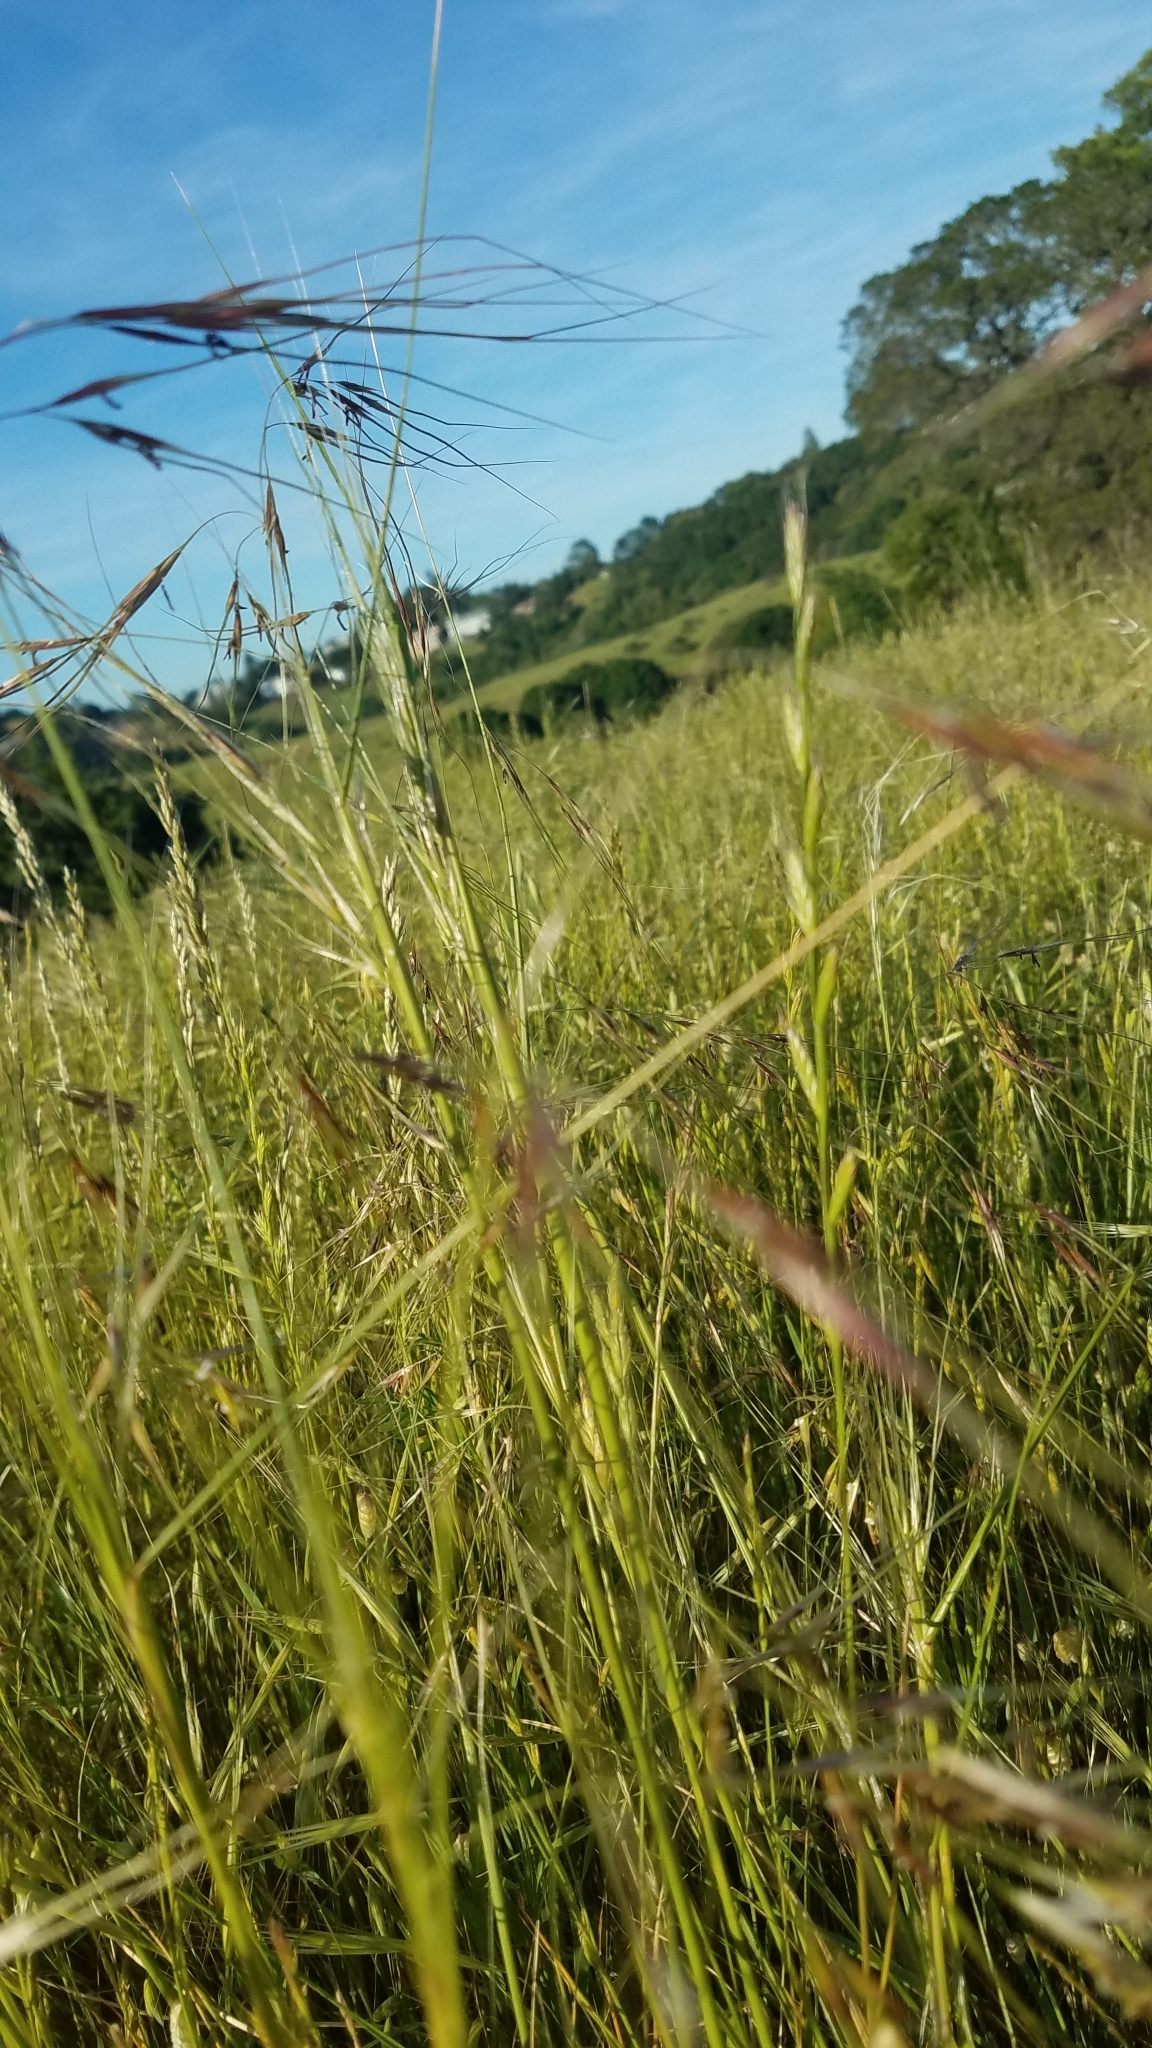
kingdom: Plantae
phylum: Tracheophyta
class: Liliopsida
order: Poales
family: Poaceae
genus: Nassella
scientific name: Nassella pulchra
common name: Purple needlegrass
